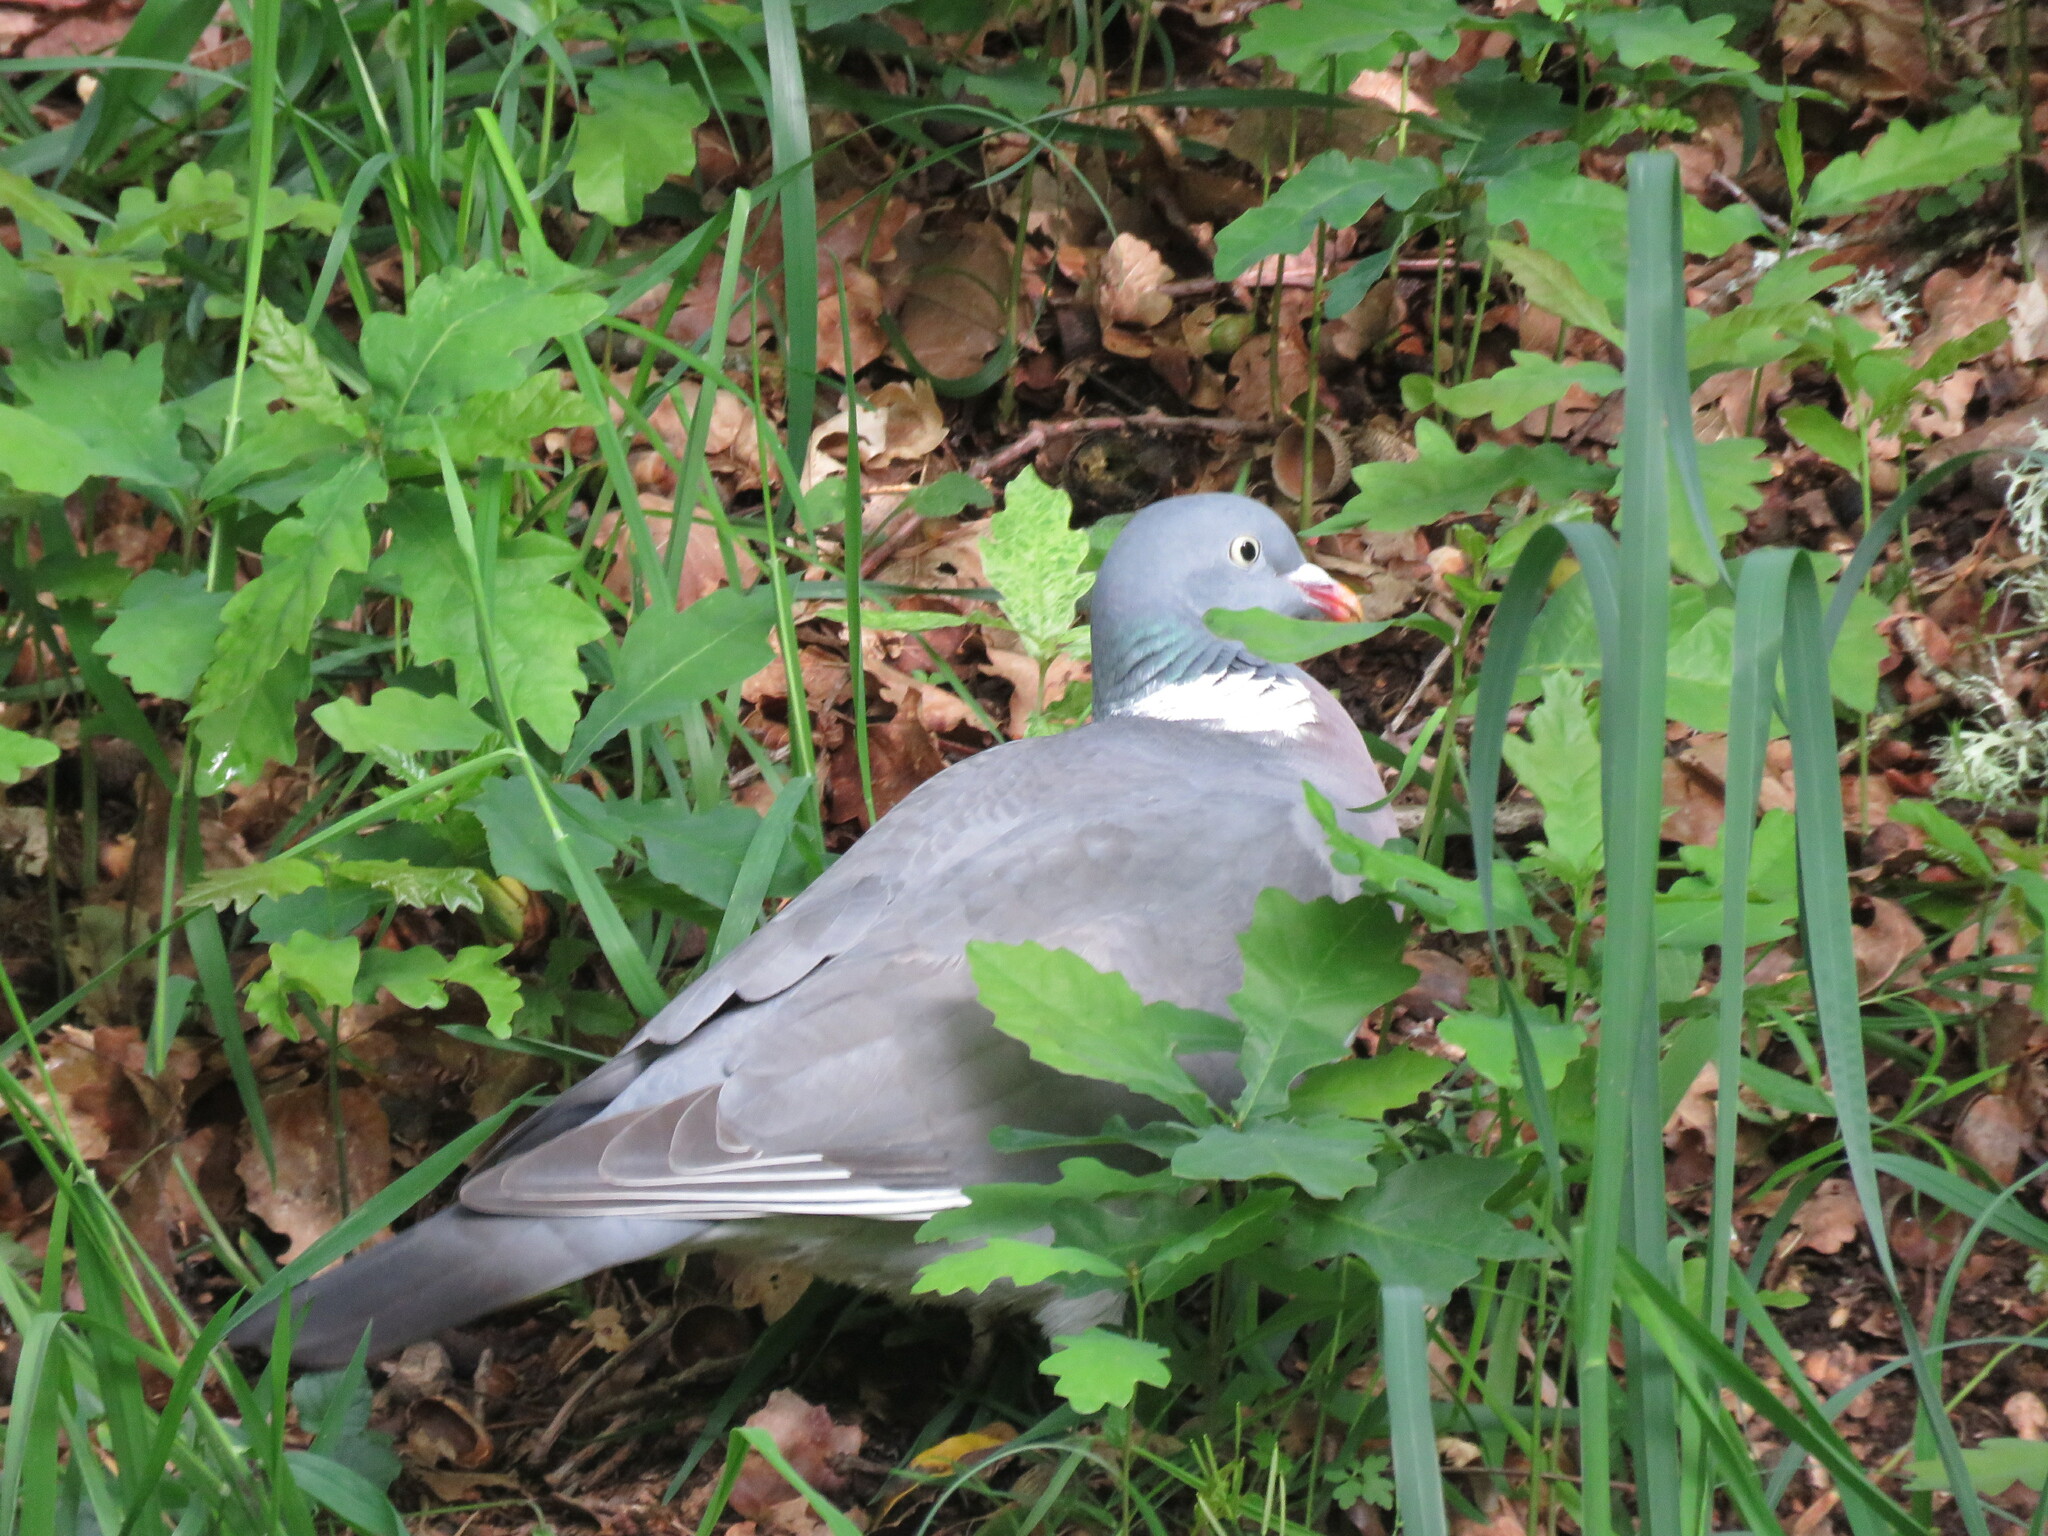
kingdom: Animalia
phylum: Chordata
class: Aves
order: Columbiformes
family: Columbidae
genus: Columba
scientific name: Columba palumbus
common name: Common wood pigeon
